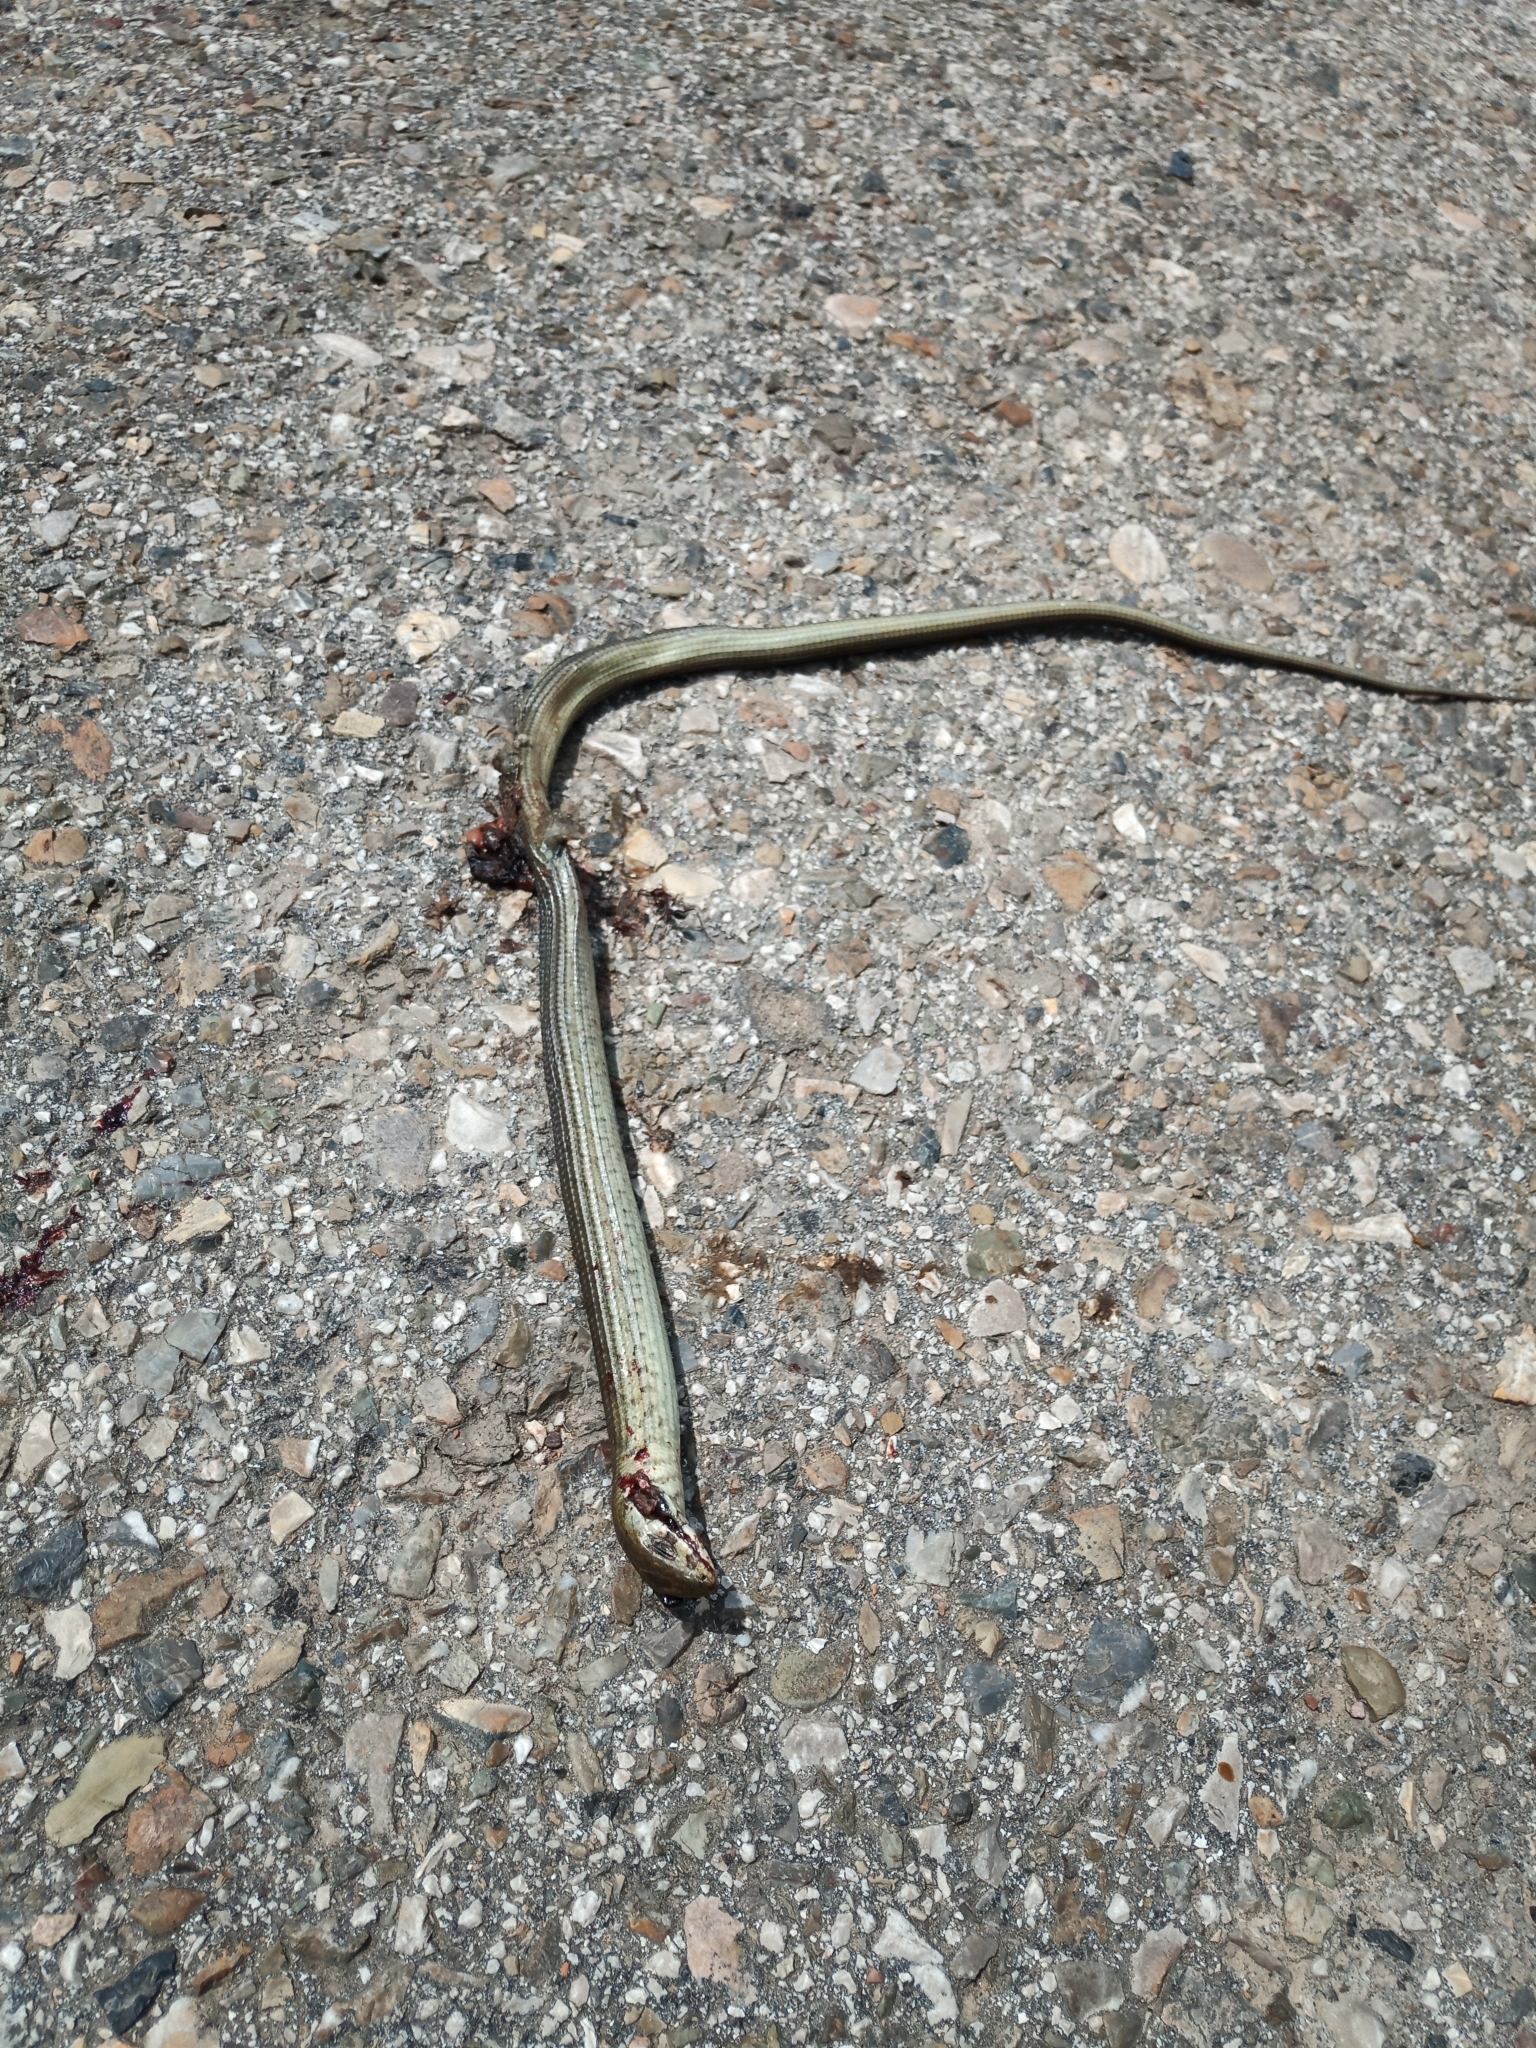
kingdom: Animalia
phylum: Chordata
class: Squamata
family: Anguidae
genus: Pseudopus
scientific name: Pseudopus apodus
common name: European glass lizard
